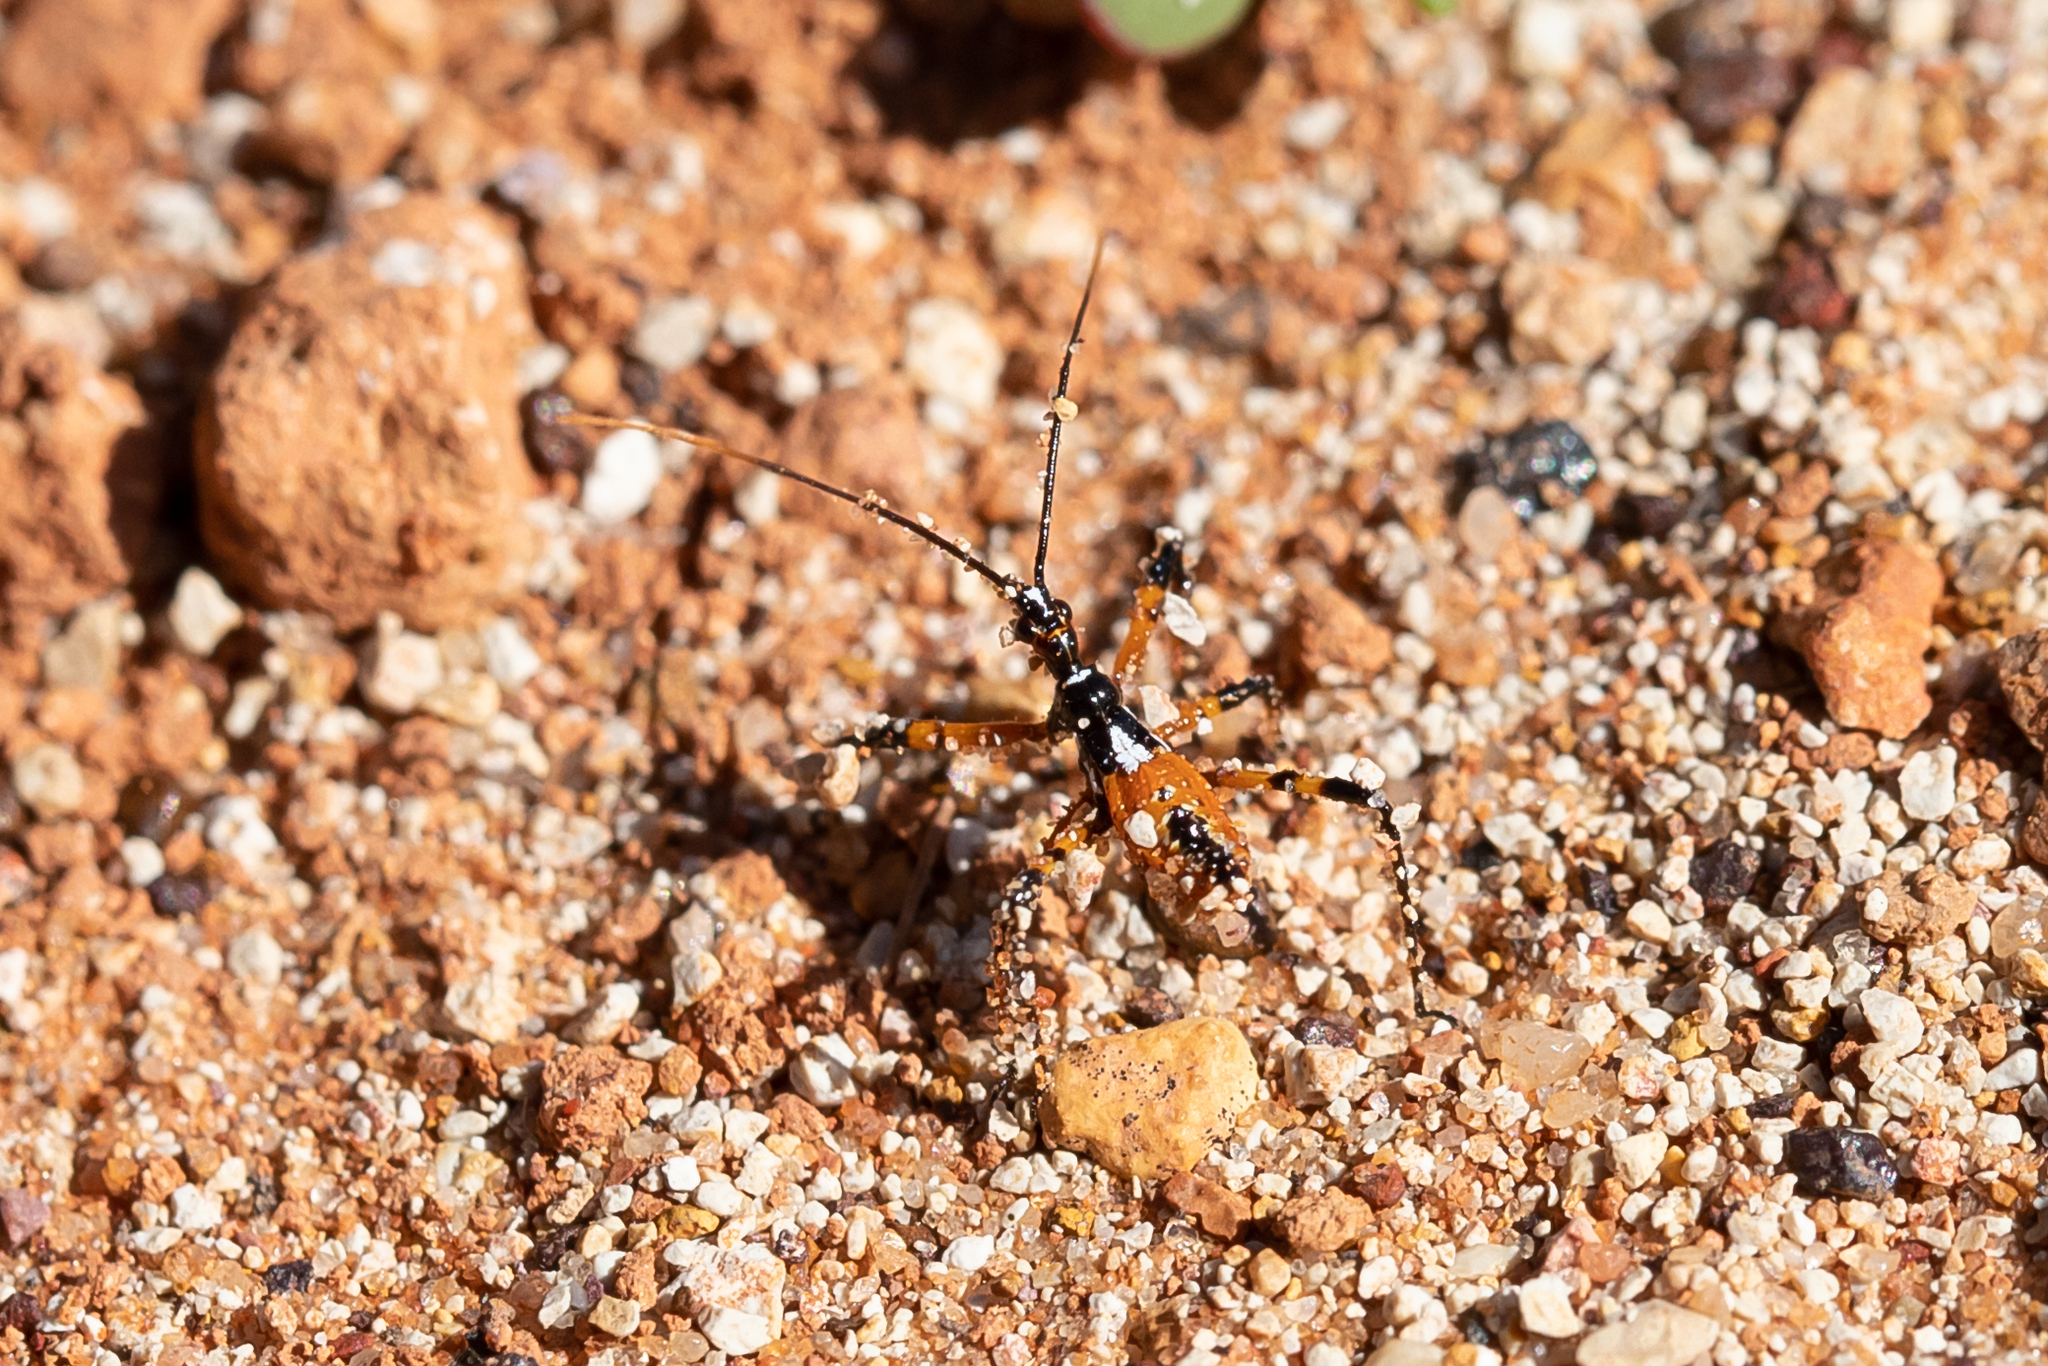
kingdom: Animalia
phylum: Arthropoda
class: Insecta
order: Hemiptera
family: Reduviidae
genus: Poecilosphodrus
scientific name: Poecilosphodrus gratiosus
